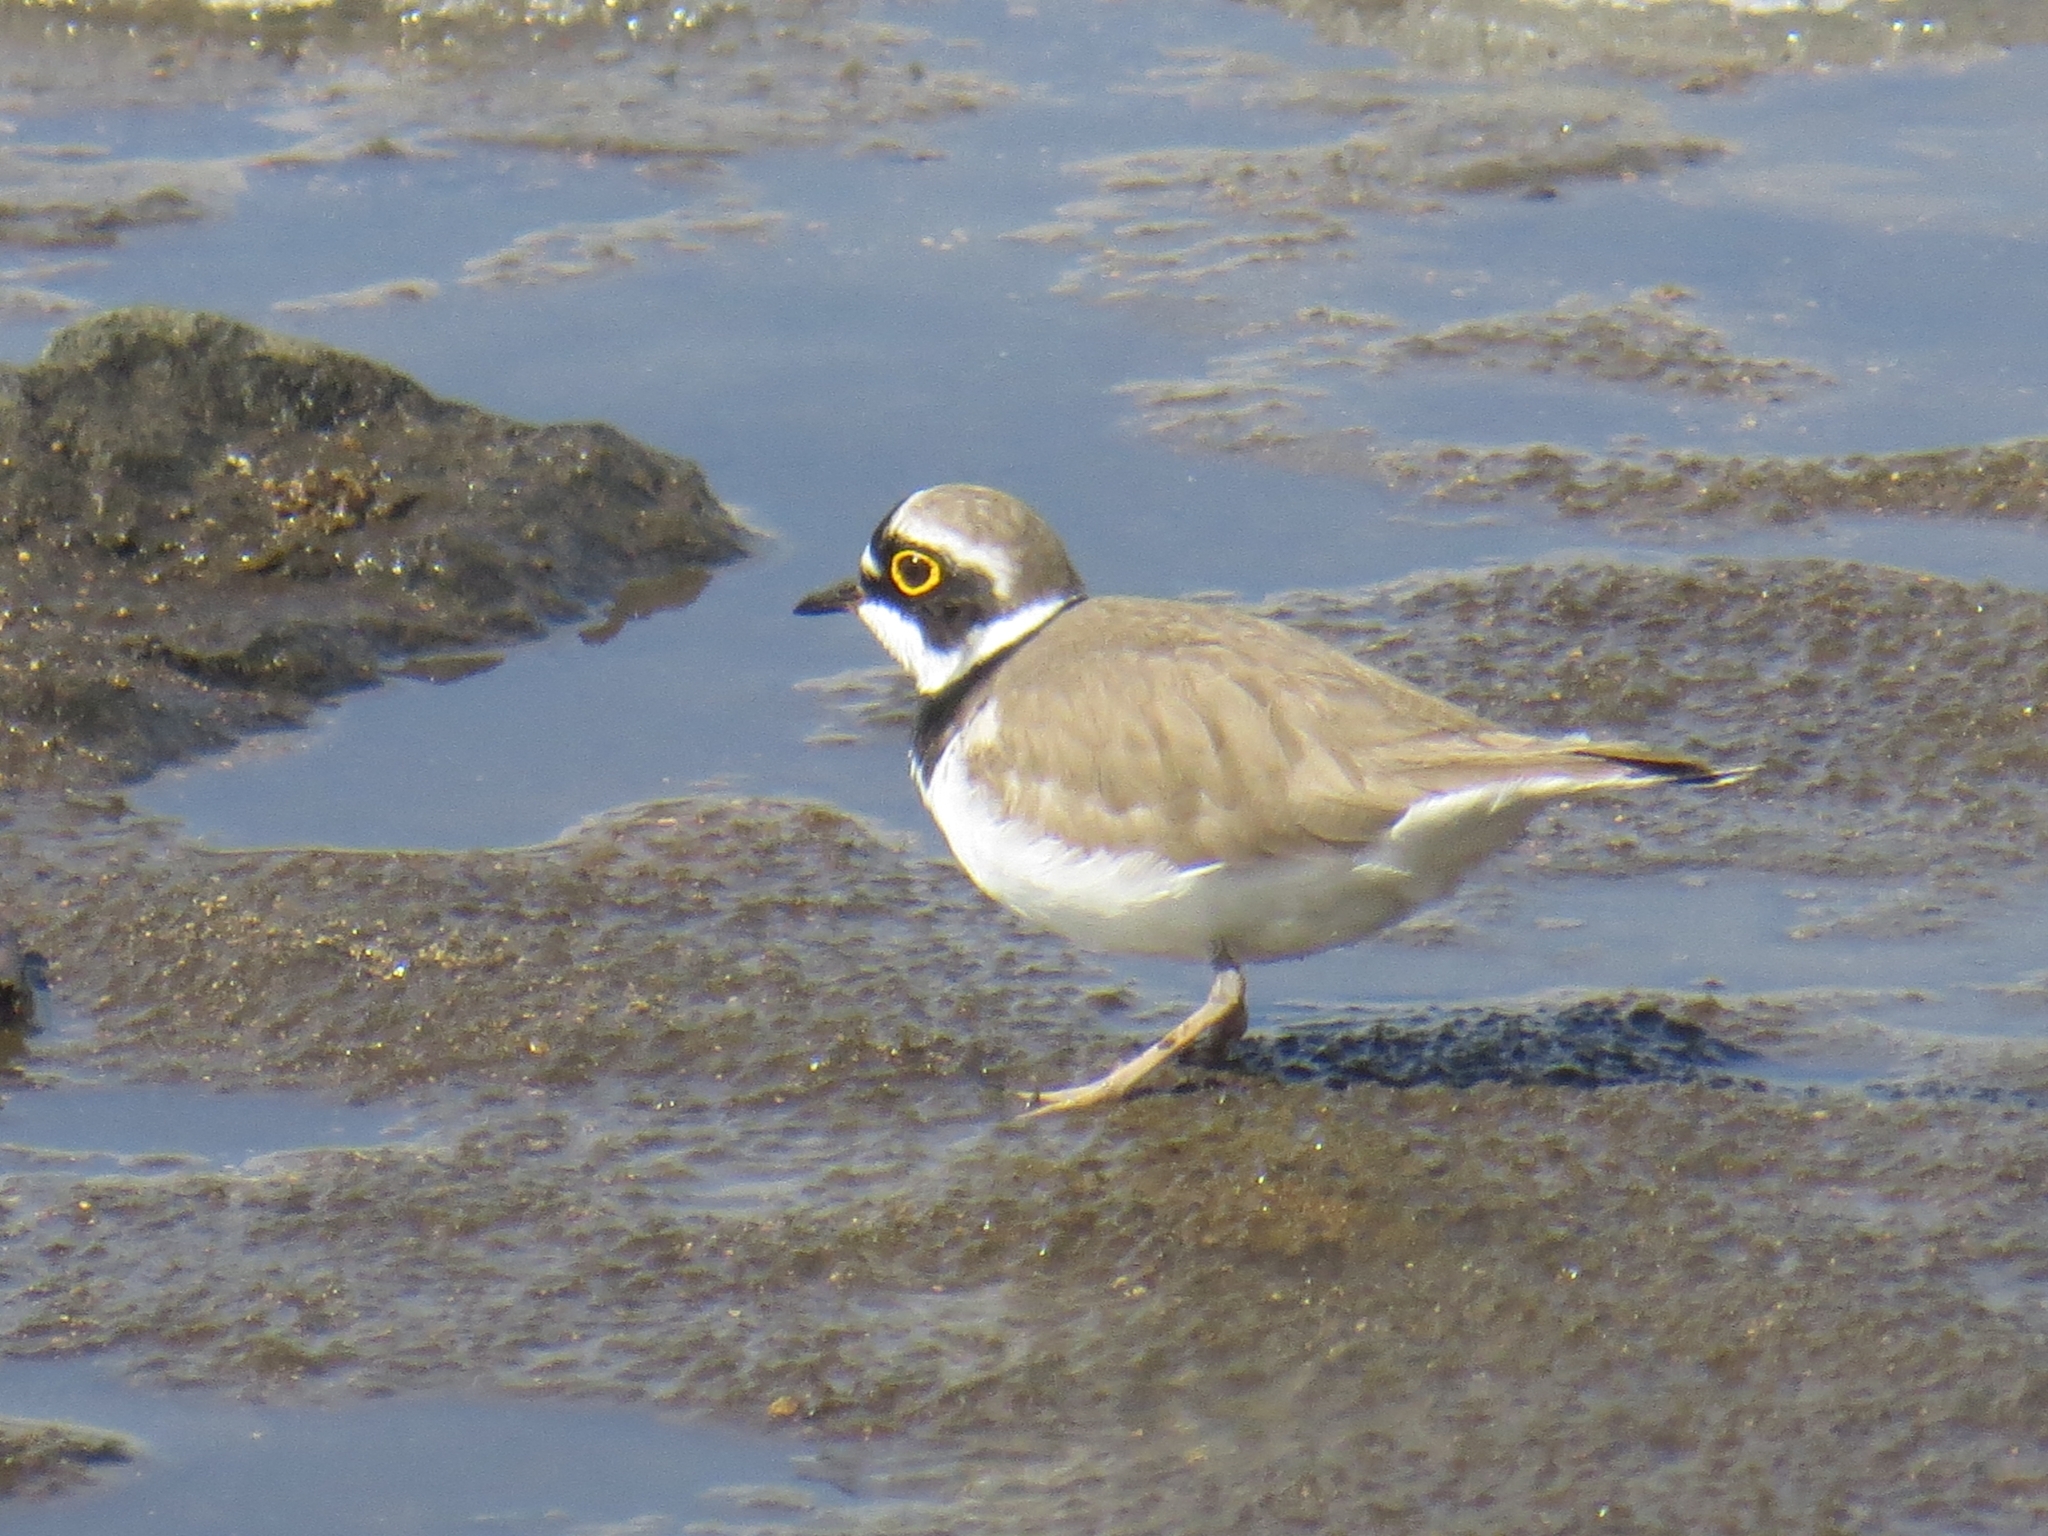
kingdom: Animalia
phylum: Chordata
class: Aves
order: Charadriiformes
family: Charadriidae
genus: Charadrius
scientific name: Charadrius dubius
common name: Little ringed plover
